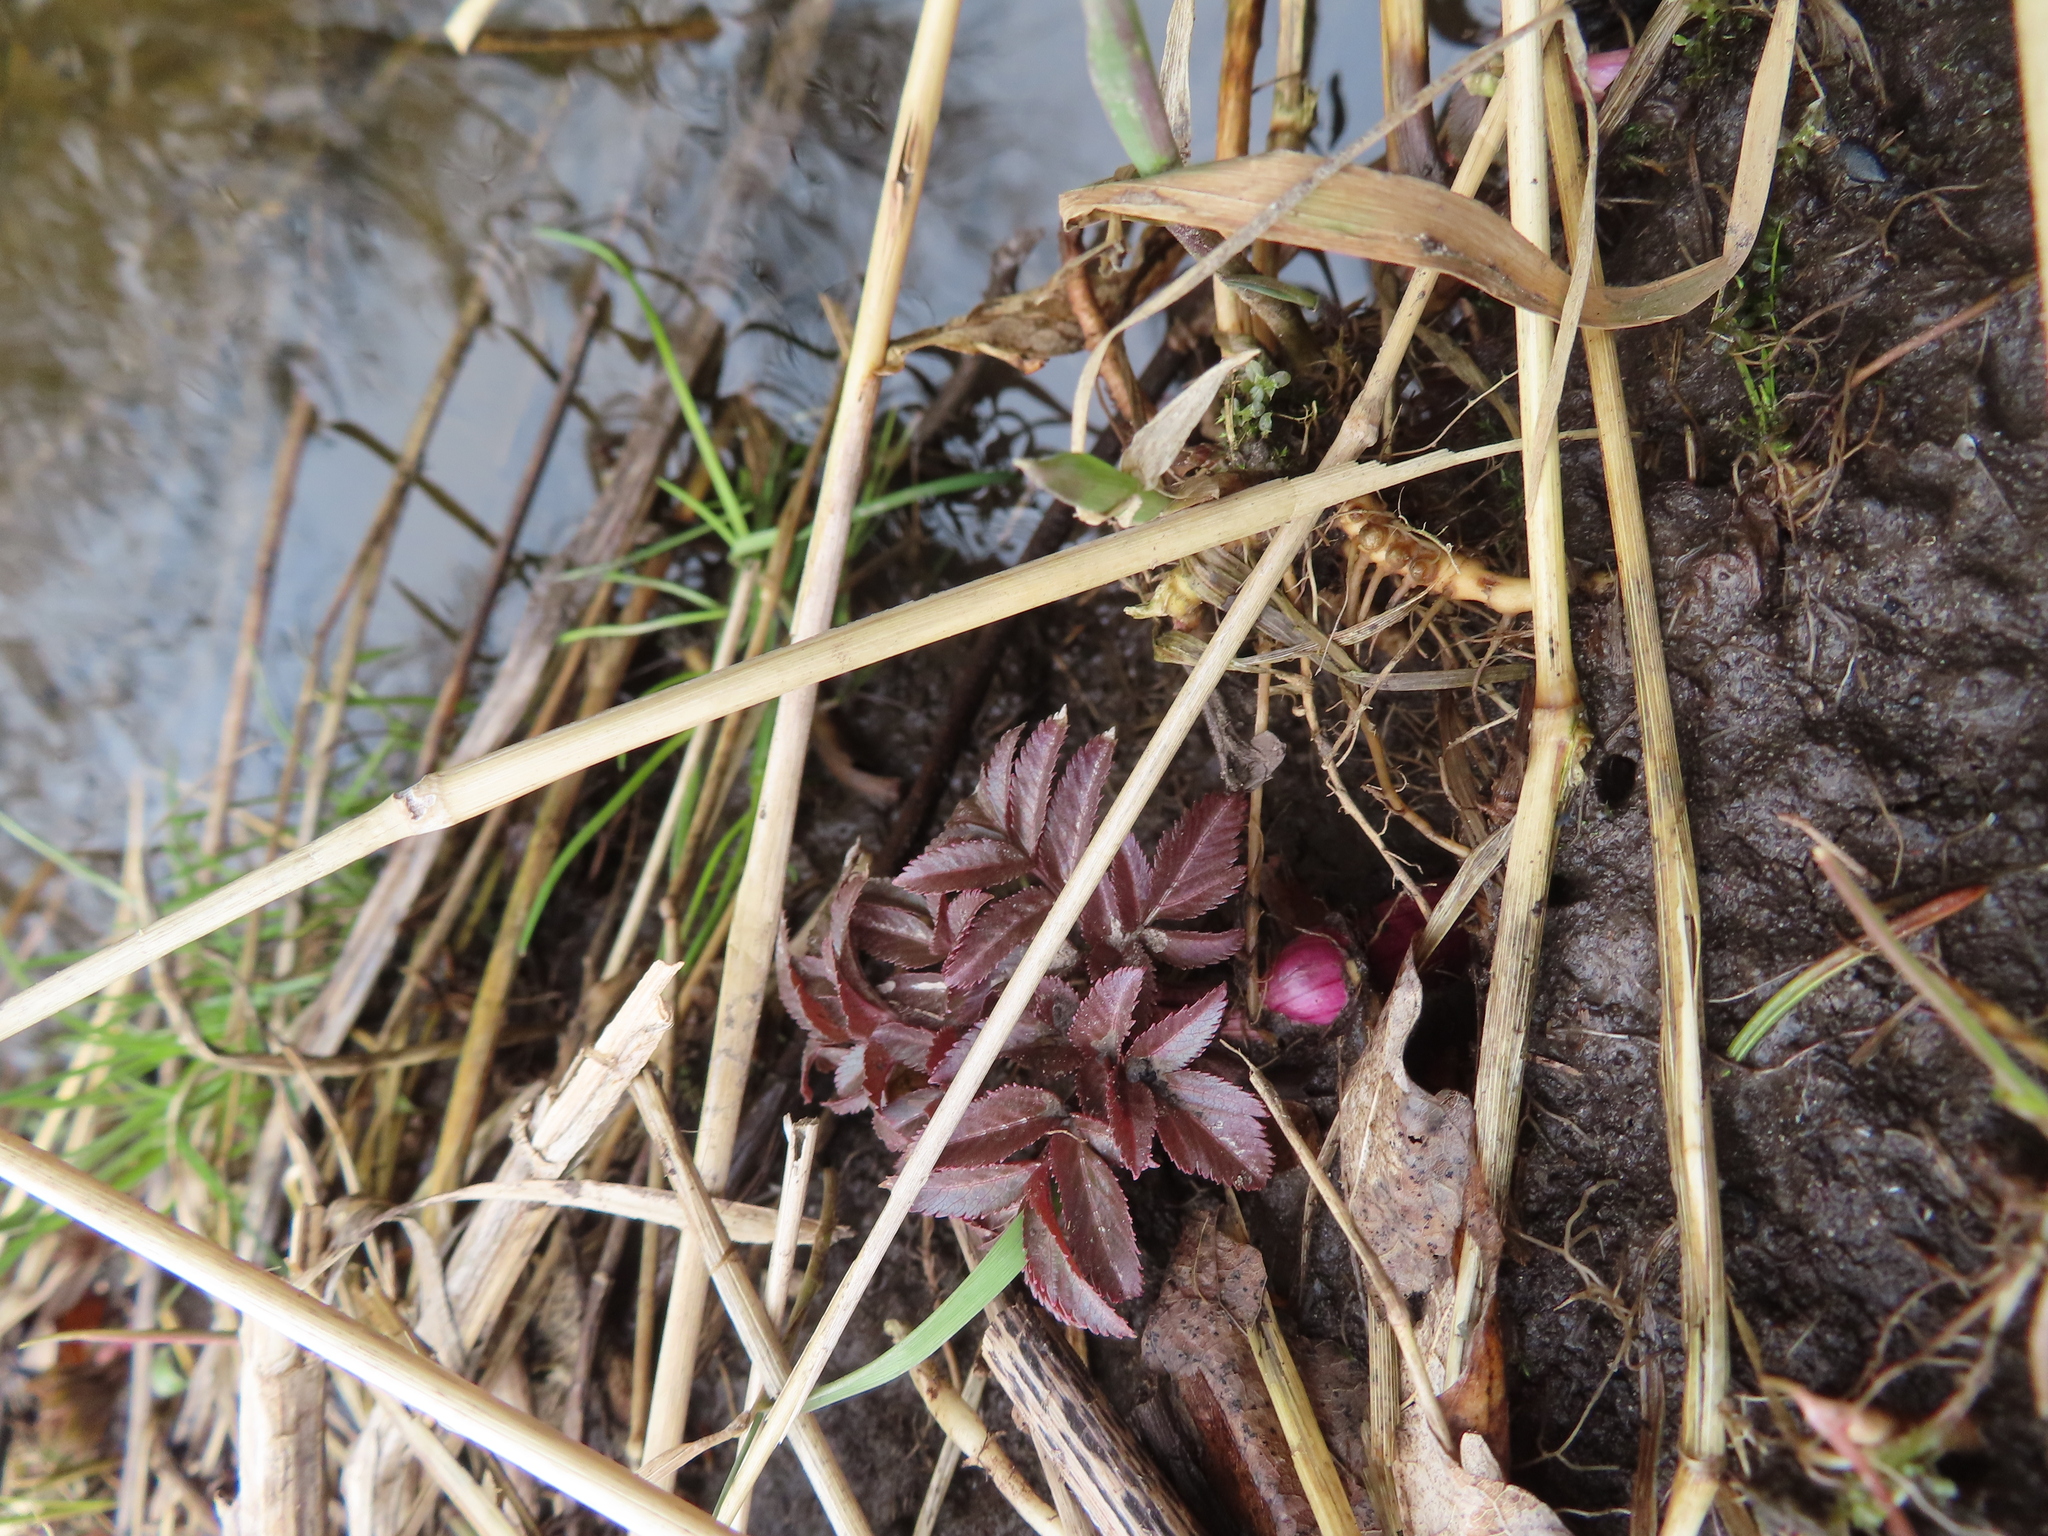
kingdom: Plantae
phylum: Tracheophyta
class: Magnoliopsida
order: Apiales
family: Apiaceae
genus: Angelica
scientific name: Angelica atropurpurea
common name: Great angelica
